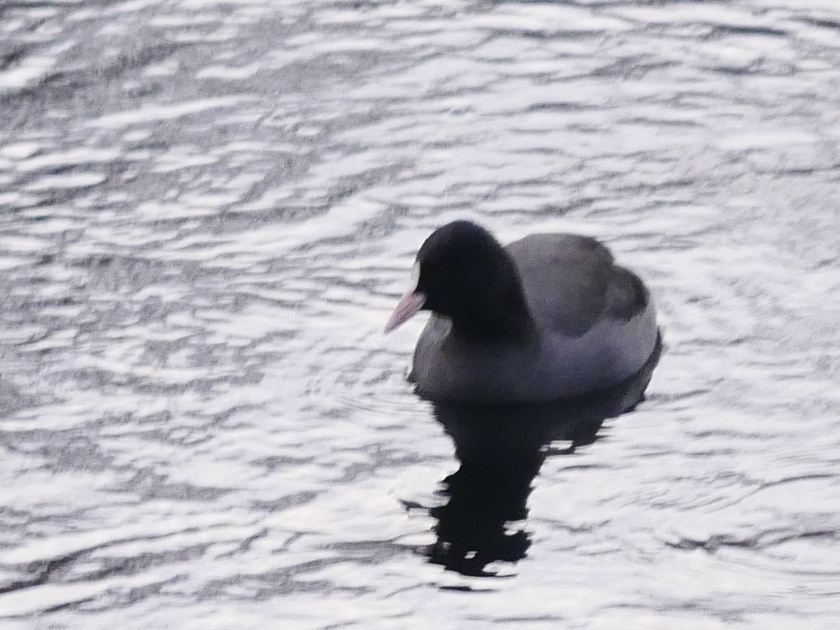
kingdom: Animalia
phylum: Chordata
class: Aves
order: Gruiformes
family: Rallidae
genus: Fulica
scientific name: Fulica atra
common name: Eurasian coot
